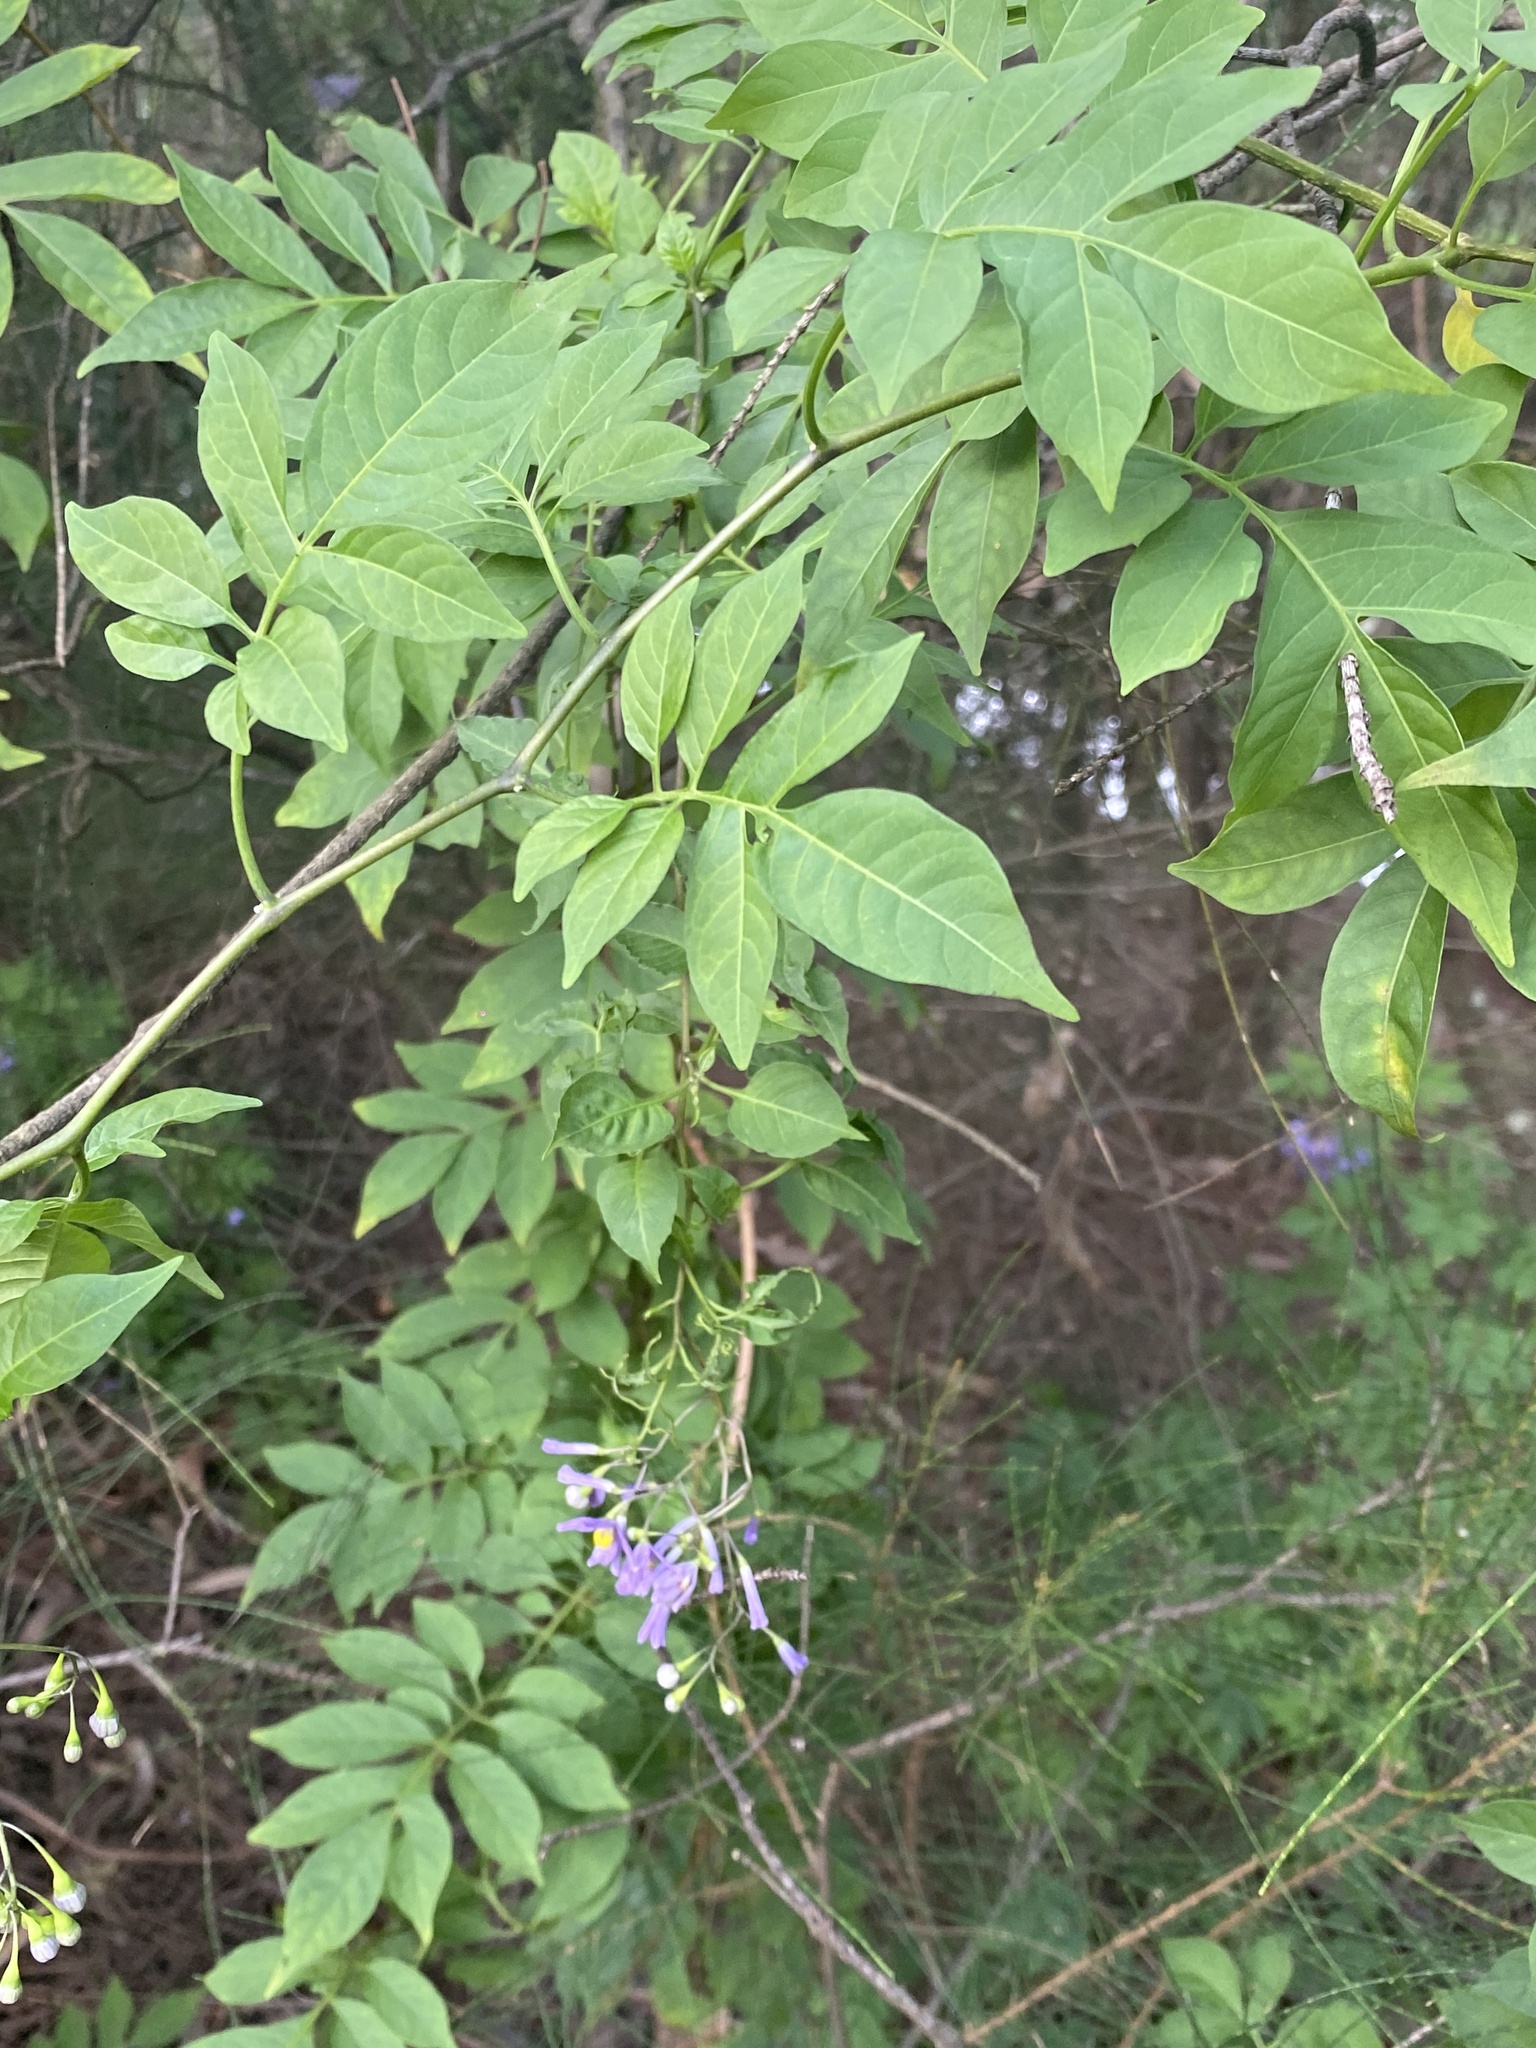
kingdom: Plantae
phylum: Tracheophyta
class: Magnoliopsida
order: Solanales
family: Solanaceae
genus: Solanum
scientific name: Solanum seaforthianum
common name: Brazilian nightshade
